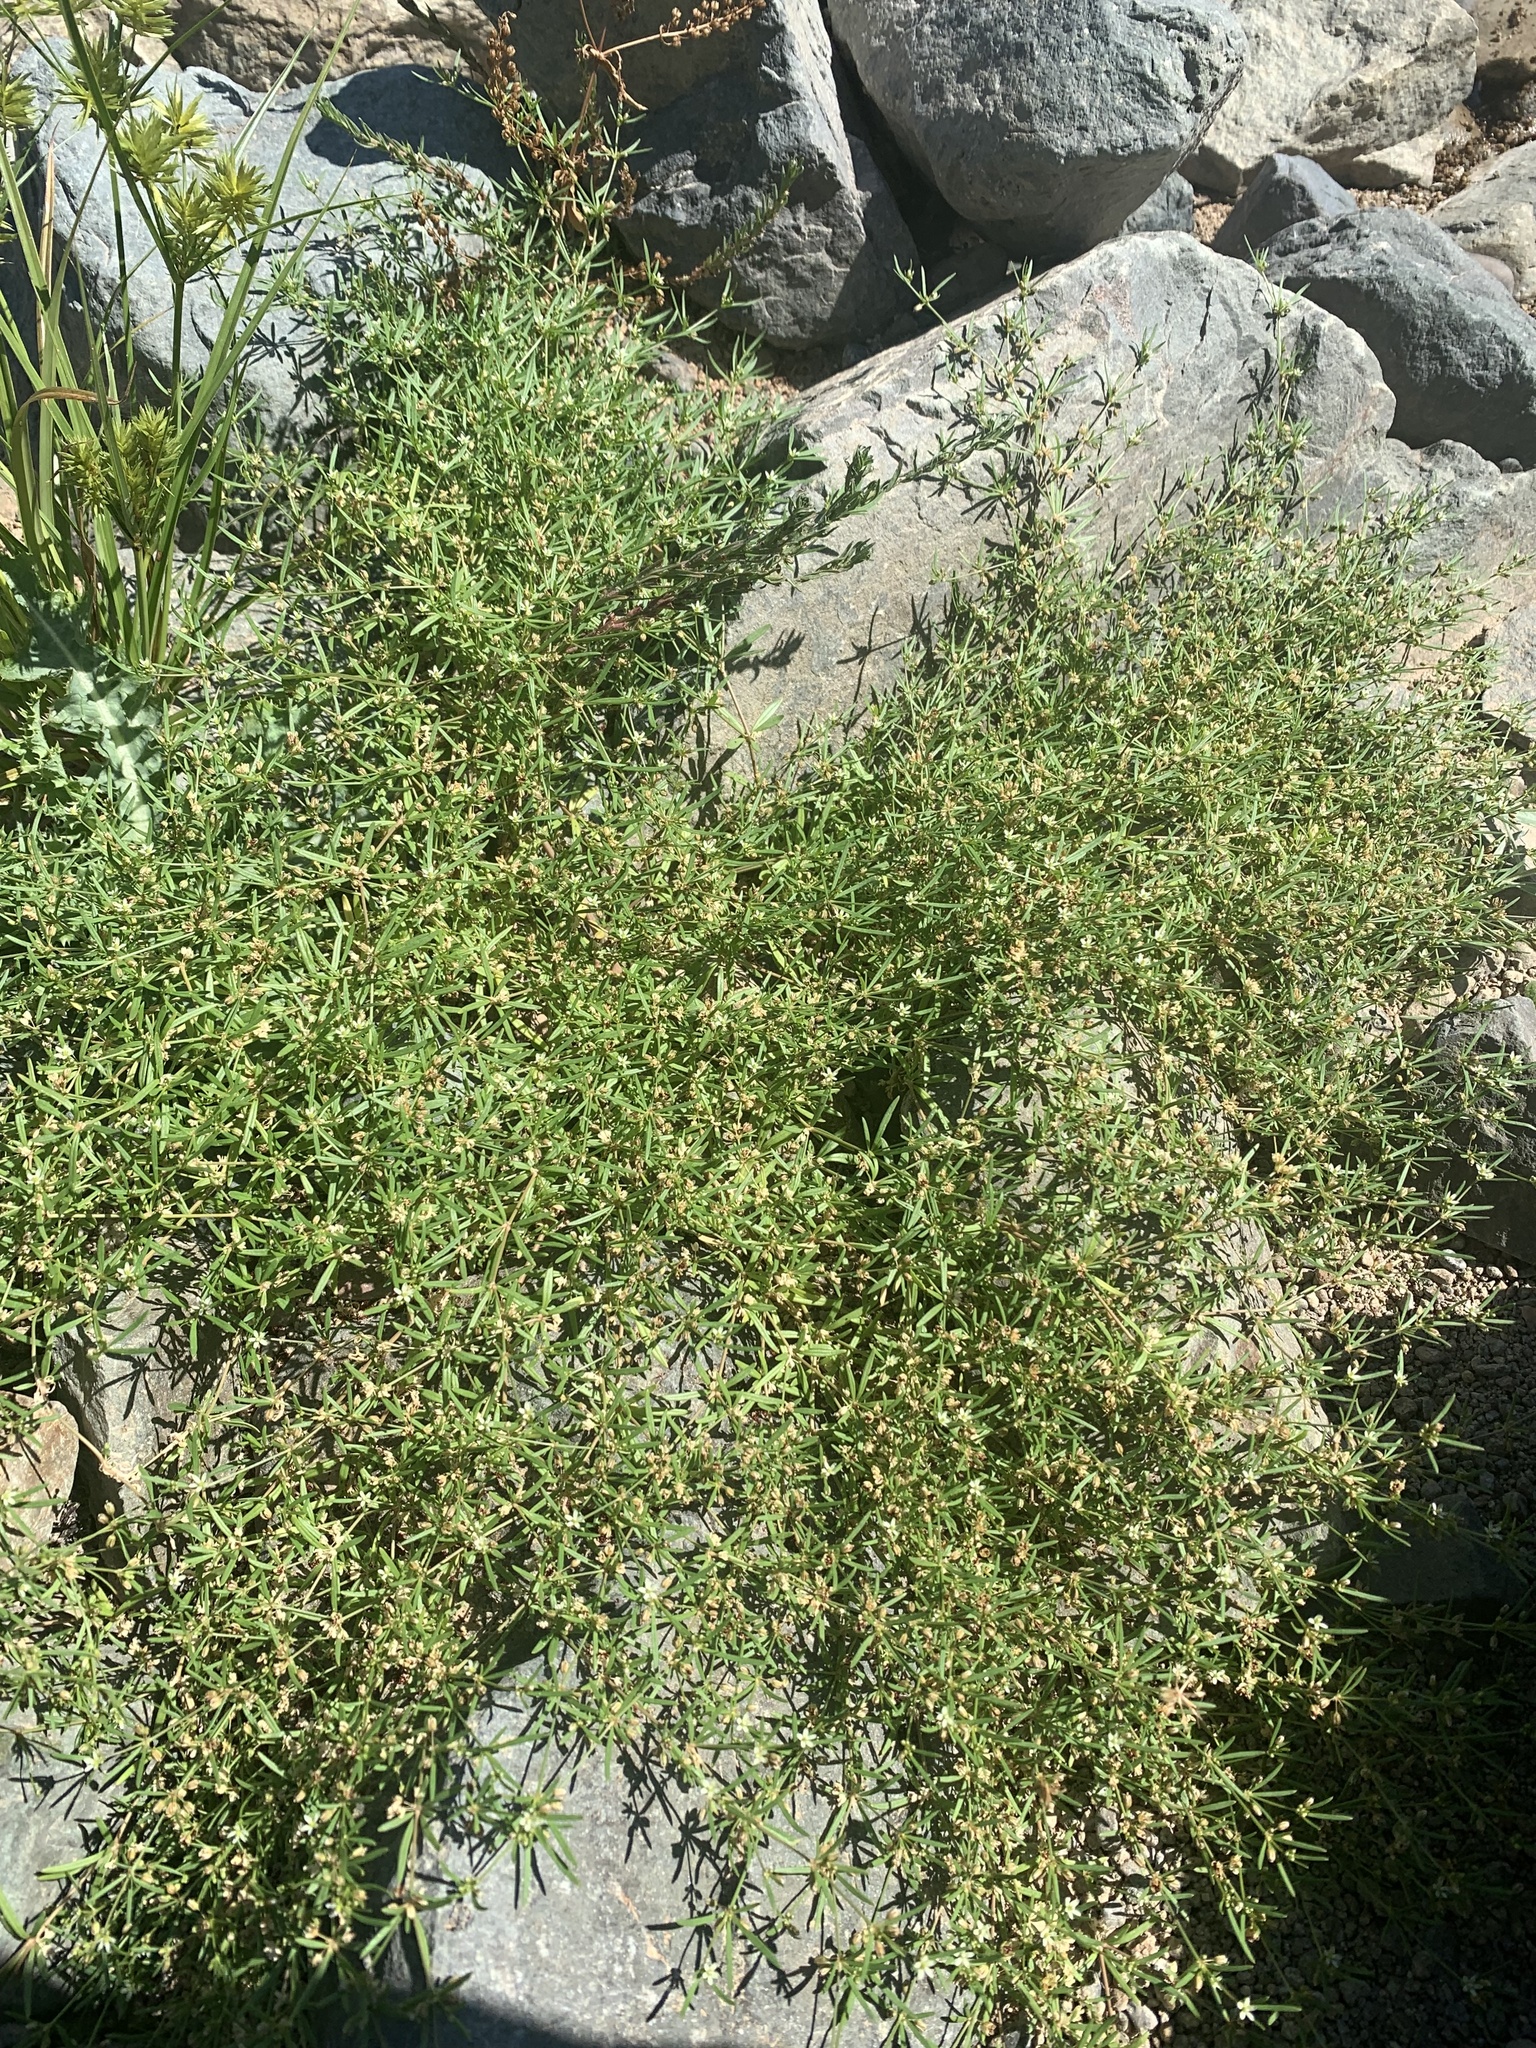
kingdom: Plantae
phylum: Tracheophyta
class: Magnoliopsida
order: Caryophyllales
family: Molluginaceae
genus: Mollugo
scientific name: Mollugo verticillata
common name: Green carpetweed
